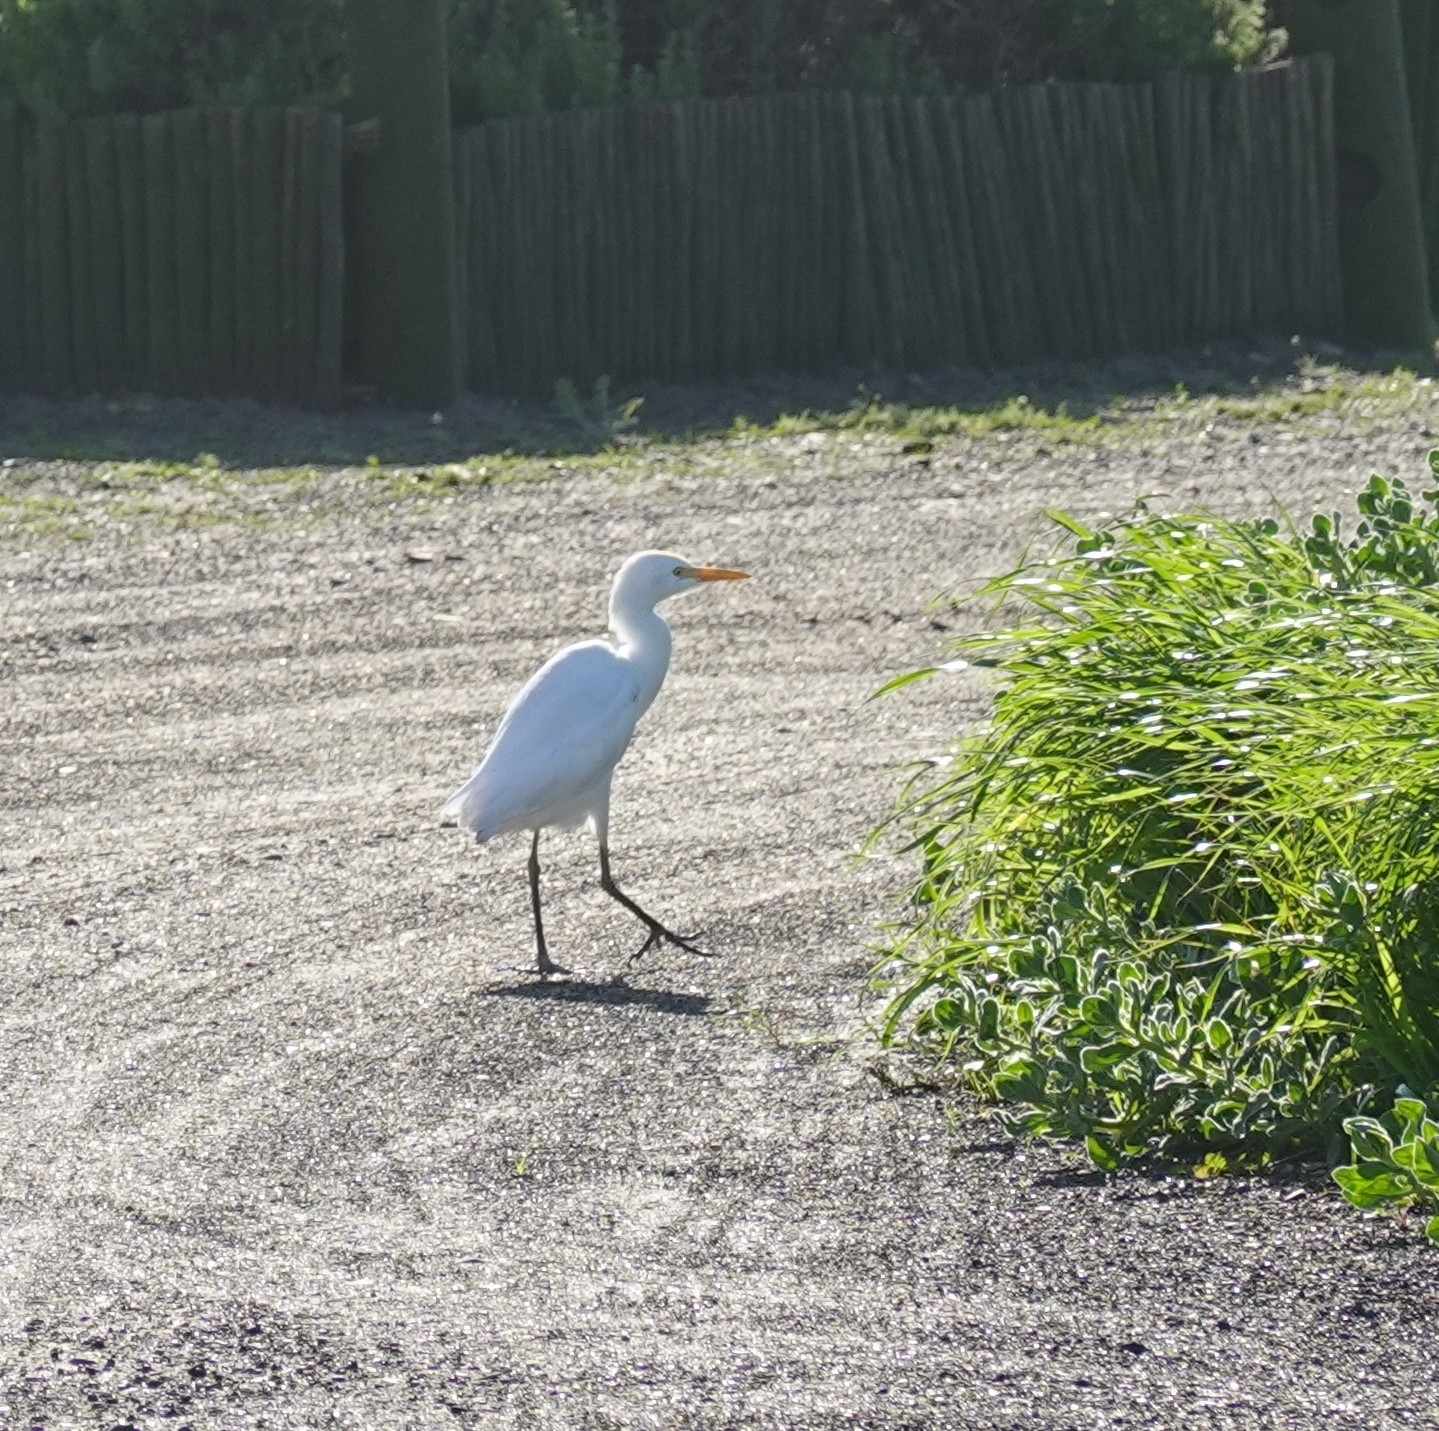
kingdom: Animalia
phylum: Chordata
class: Aves
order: Pelecaniformes
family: Ardeidae
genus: Bubulcus
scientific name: Bubulcus ibis
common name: Cattle egret
